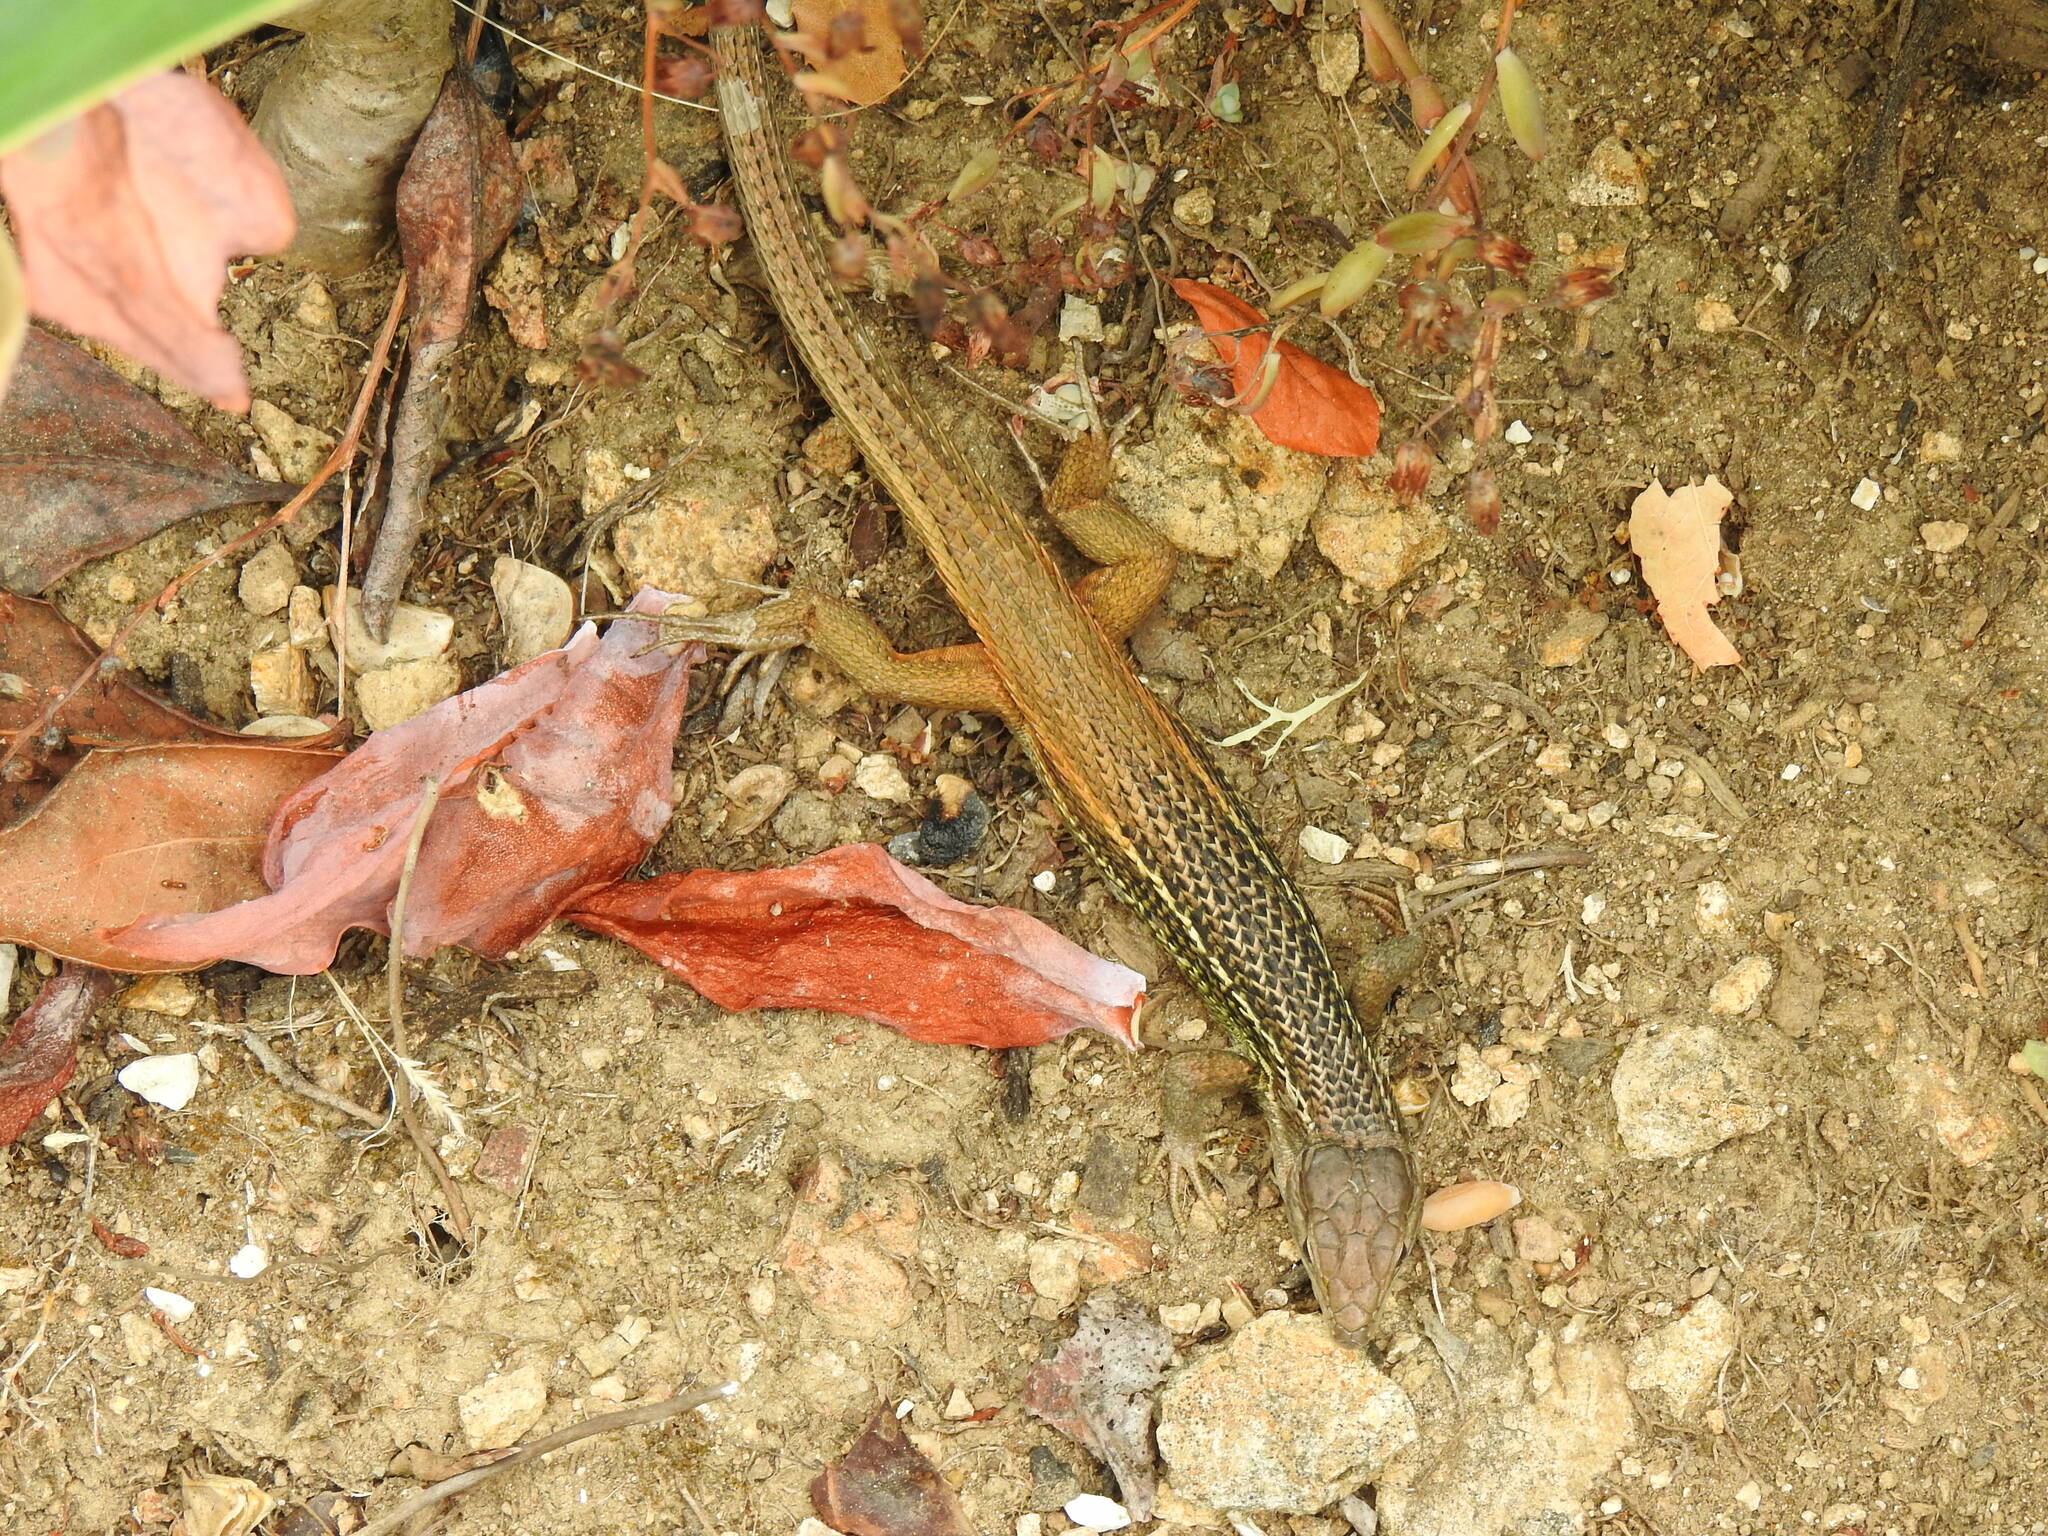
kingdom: Animalia
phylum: Chordata
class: Squamata
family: Lacertidae
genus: Psammodromus
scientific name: Psammodromus algirus
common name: Algerian psammodromus
